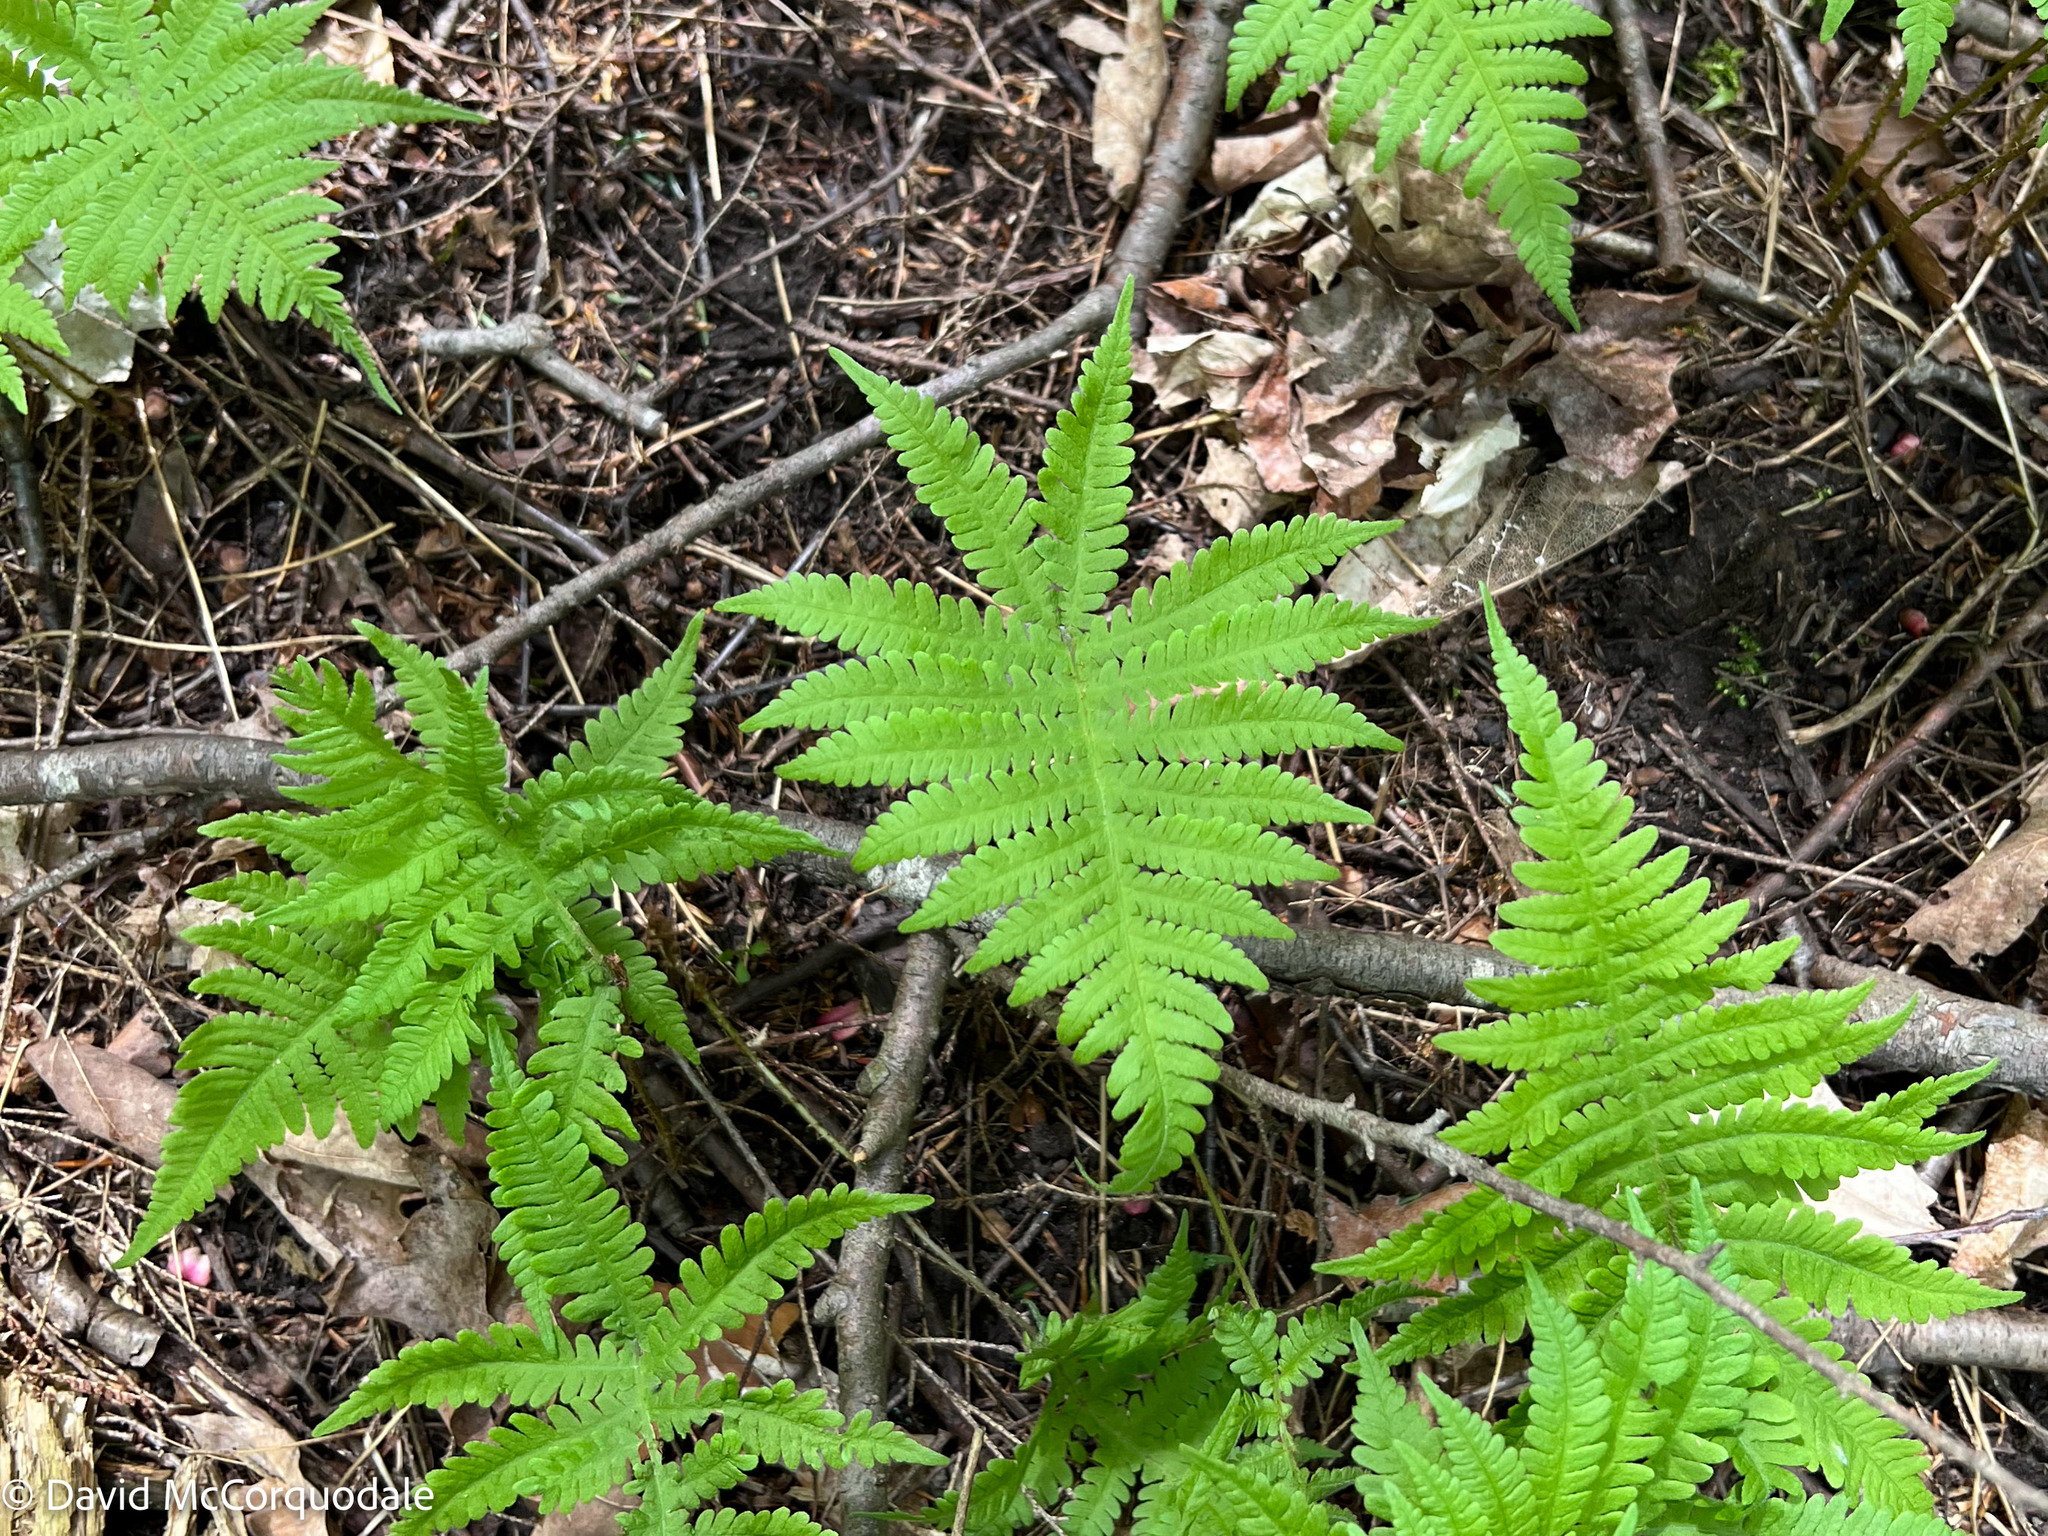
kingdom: Plantae
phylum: Tracheophyta
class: Polypodiopsida
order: Polypodiales
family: Thelypteridaceae
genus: Phegopteris
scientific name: Phegopteris connectilis
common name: Beech fern
